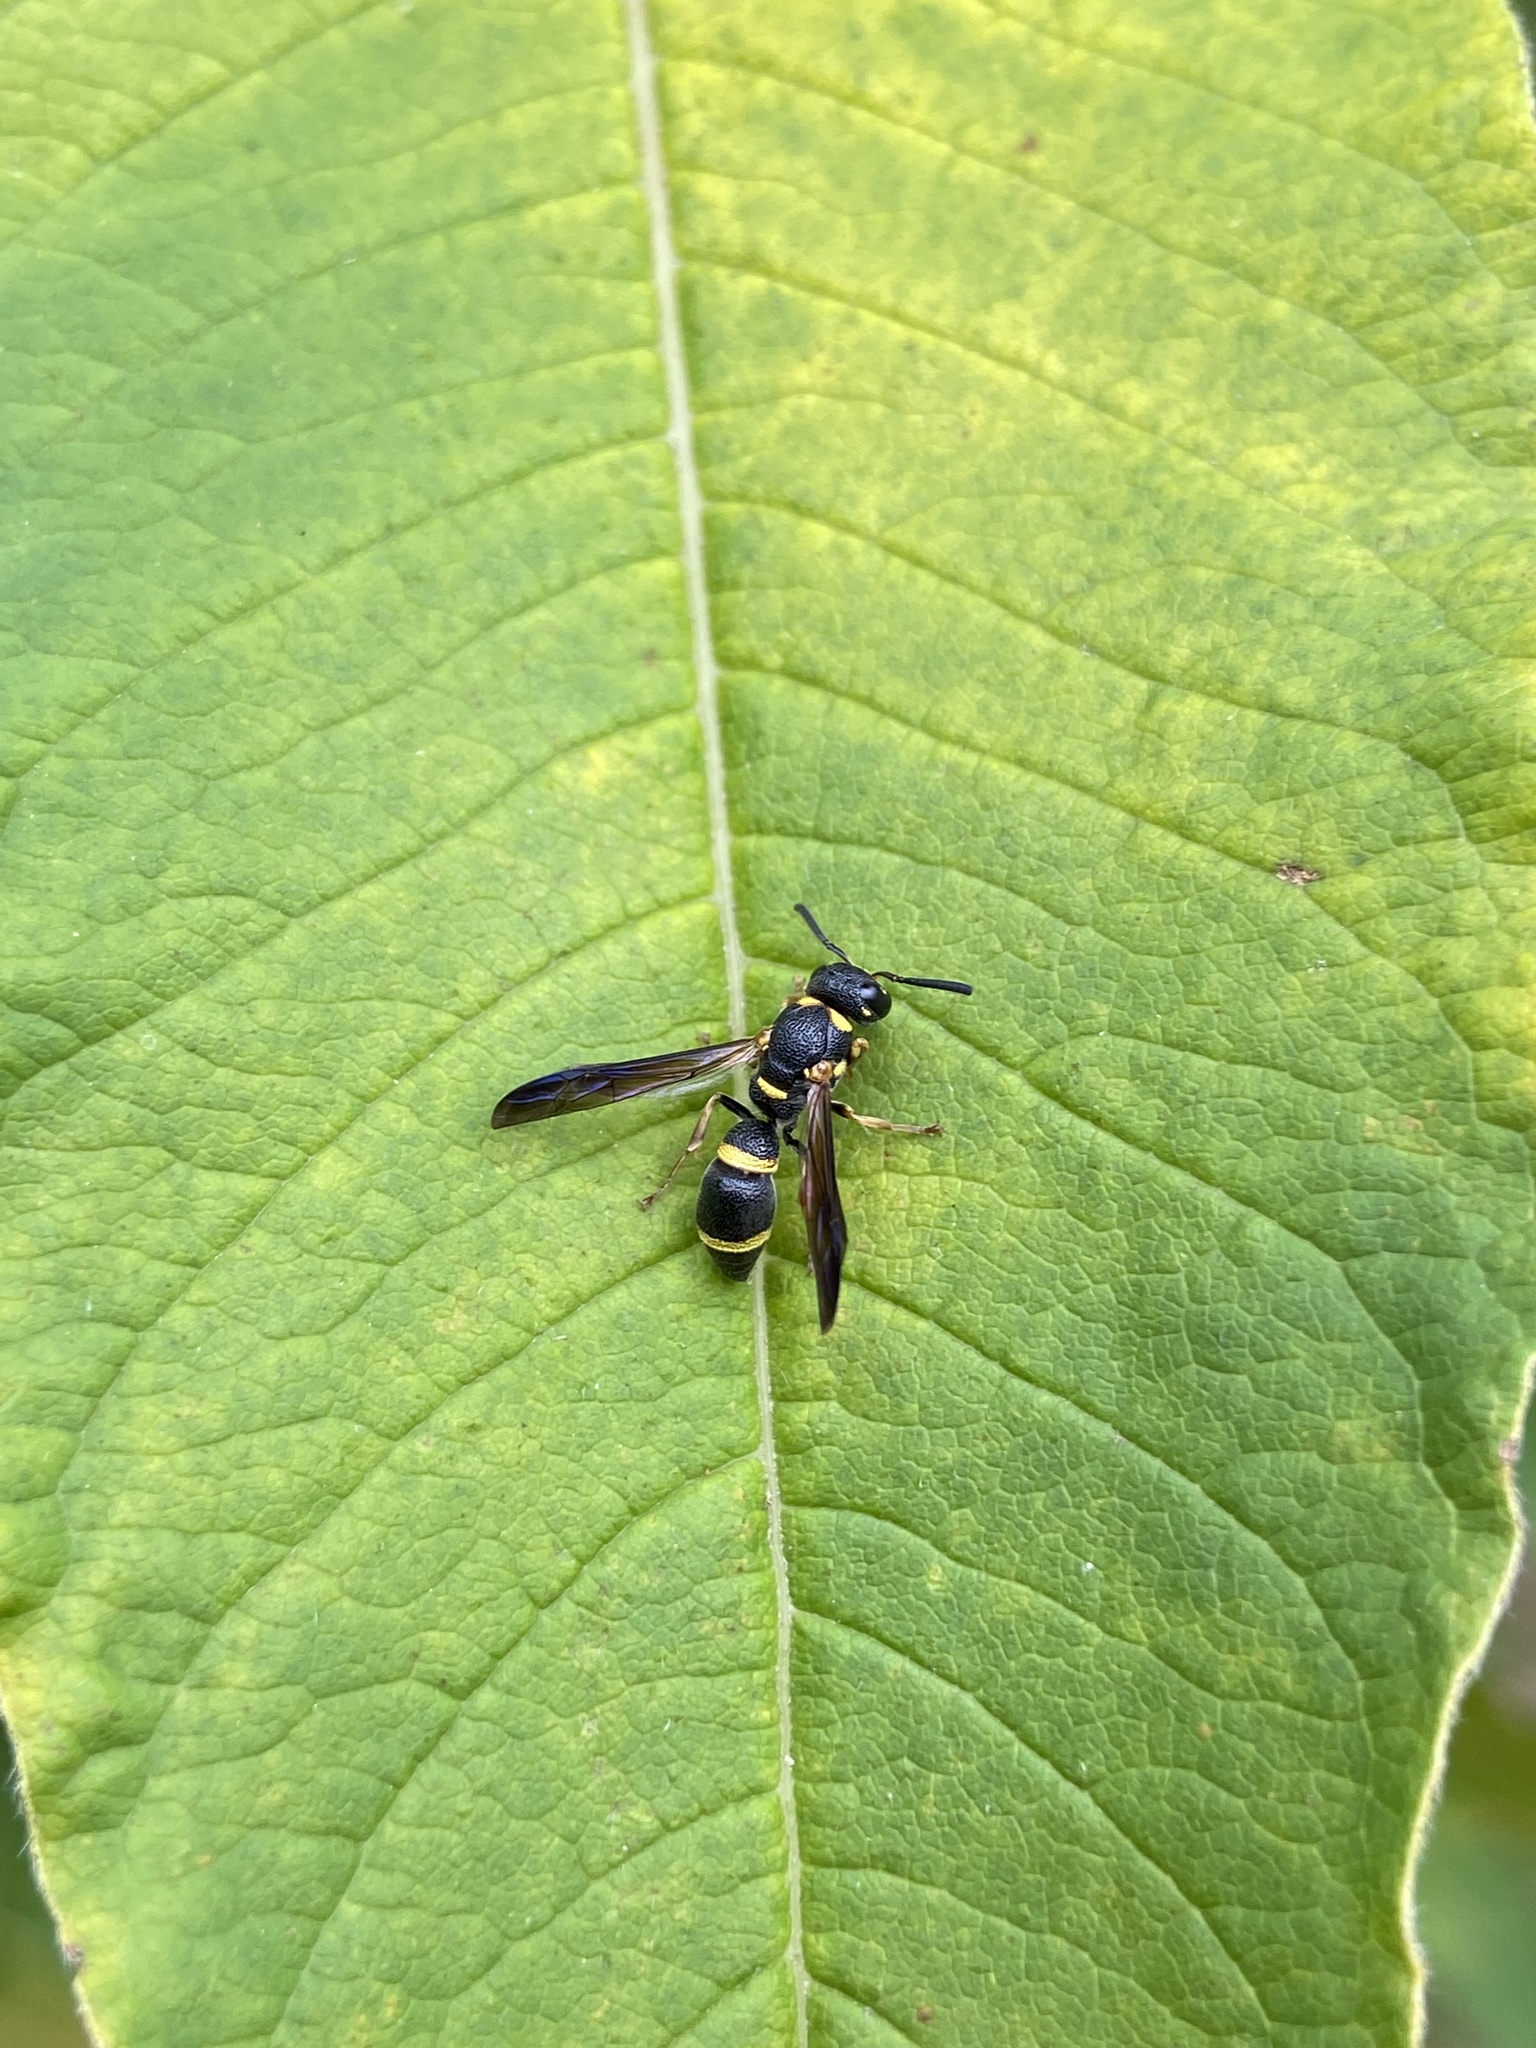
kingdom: Animalia
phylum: Arthropoda
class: Insecta
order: Hymenoptera
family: Eumenidae
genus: Parancistrocerus
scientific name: Parancistrocerus perennis
